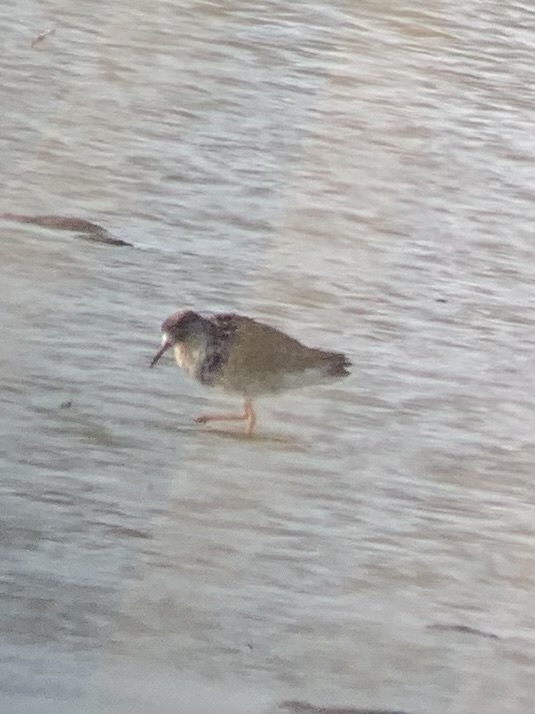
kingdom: Animalia
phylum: Chordata
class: Aves
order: Charadriiformes
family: Scolopacidae
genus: Calidris
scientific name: Calidris pugnax
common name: Ruff
